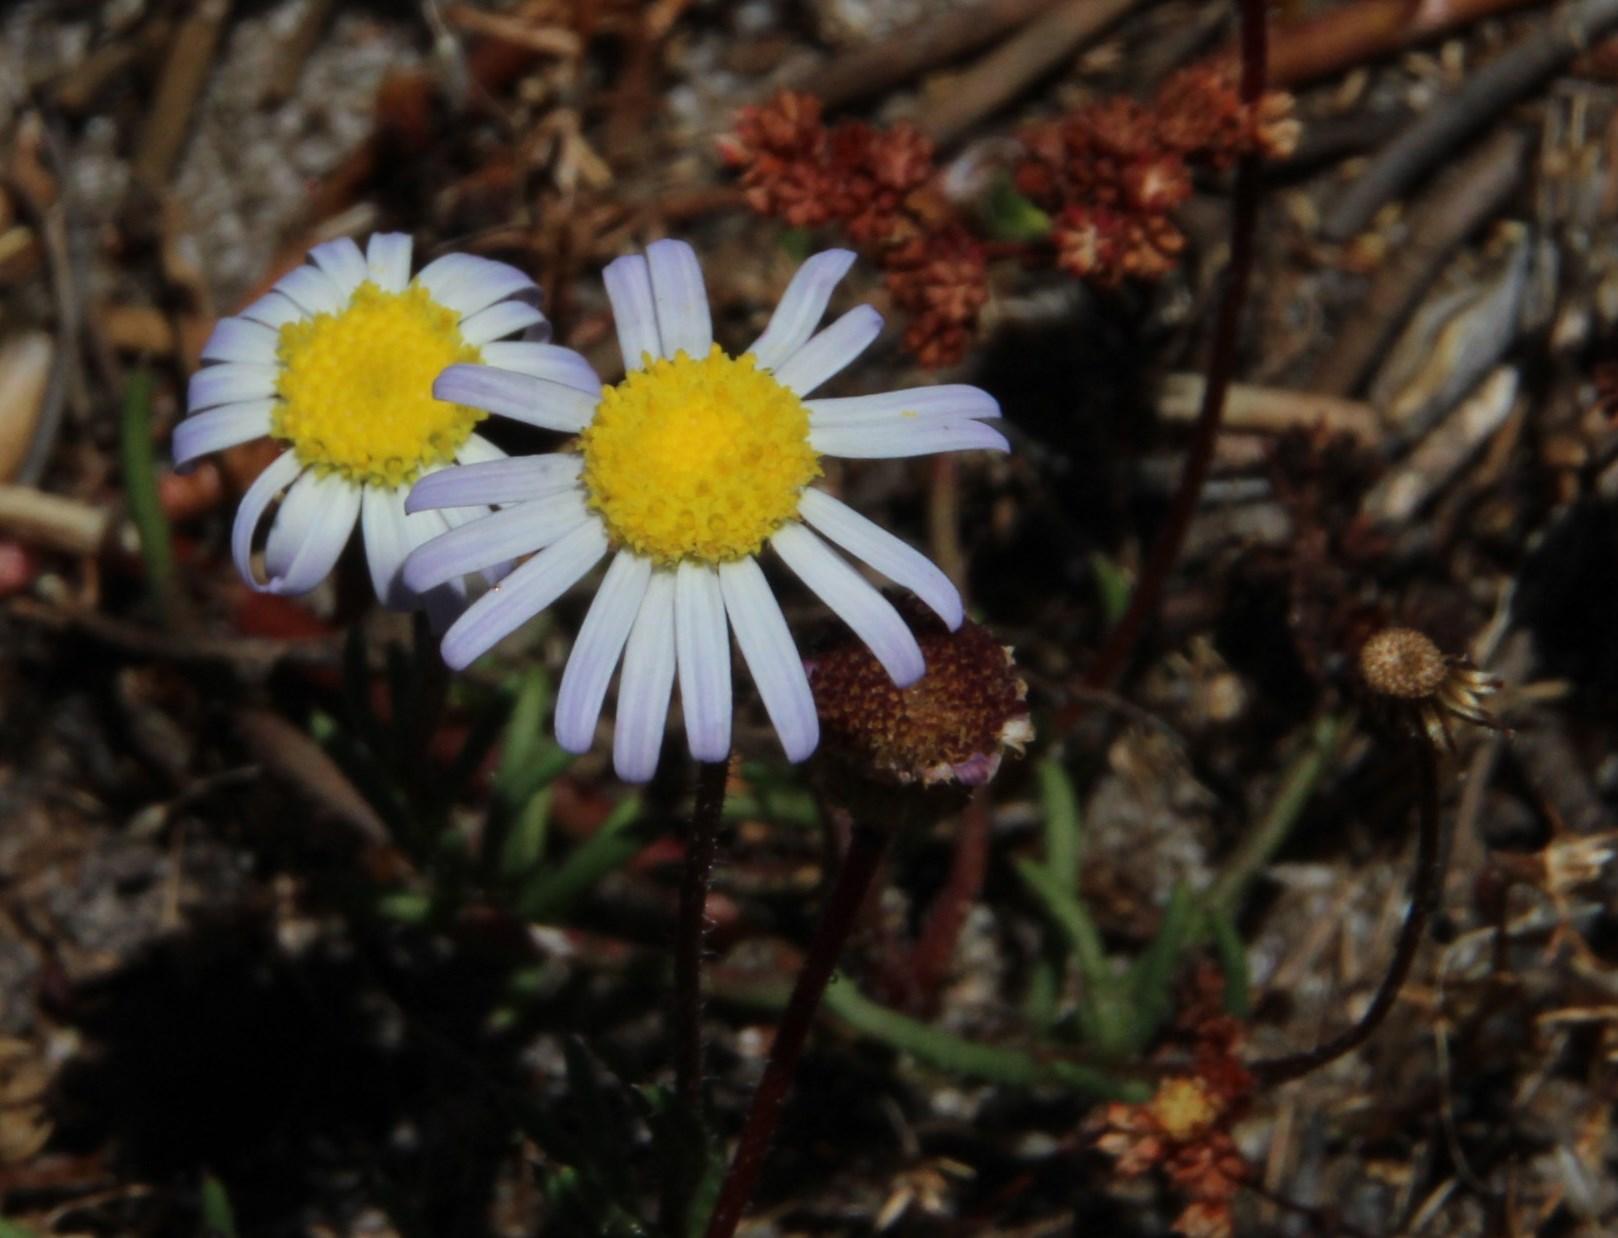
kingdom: Plantae
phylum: Tracheophyta
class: Magnoliopsida
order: Asterales
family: Asteraceae
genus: Felicia
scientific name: Felicia tenella
